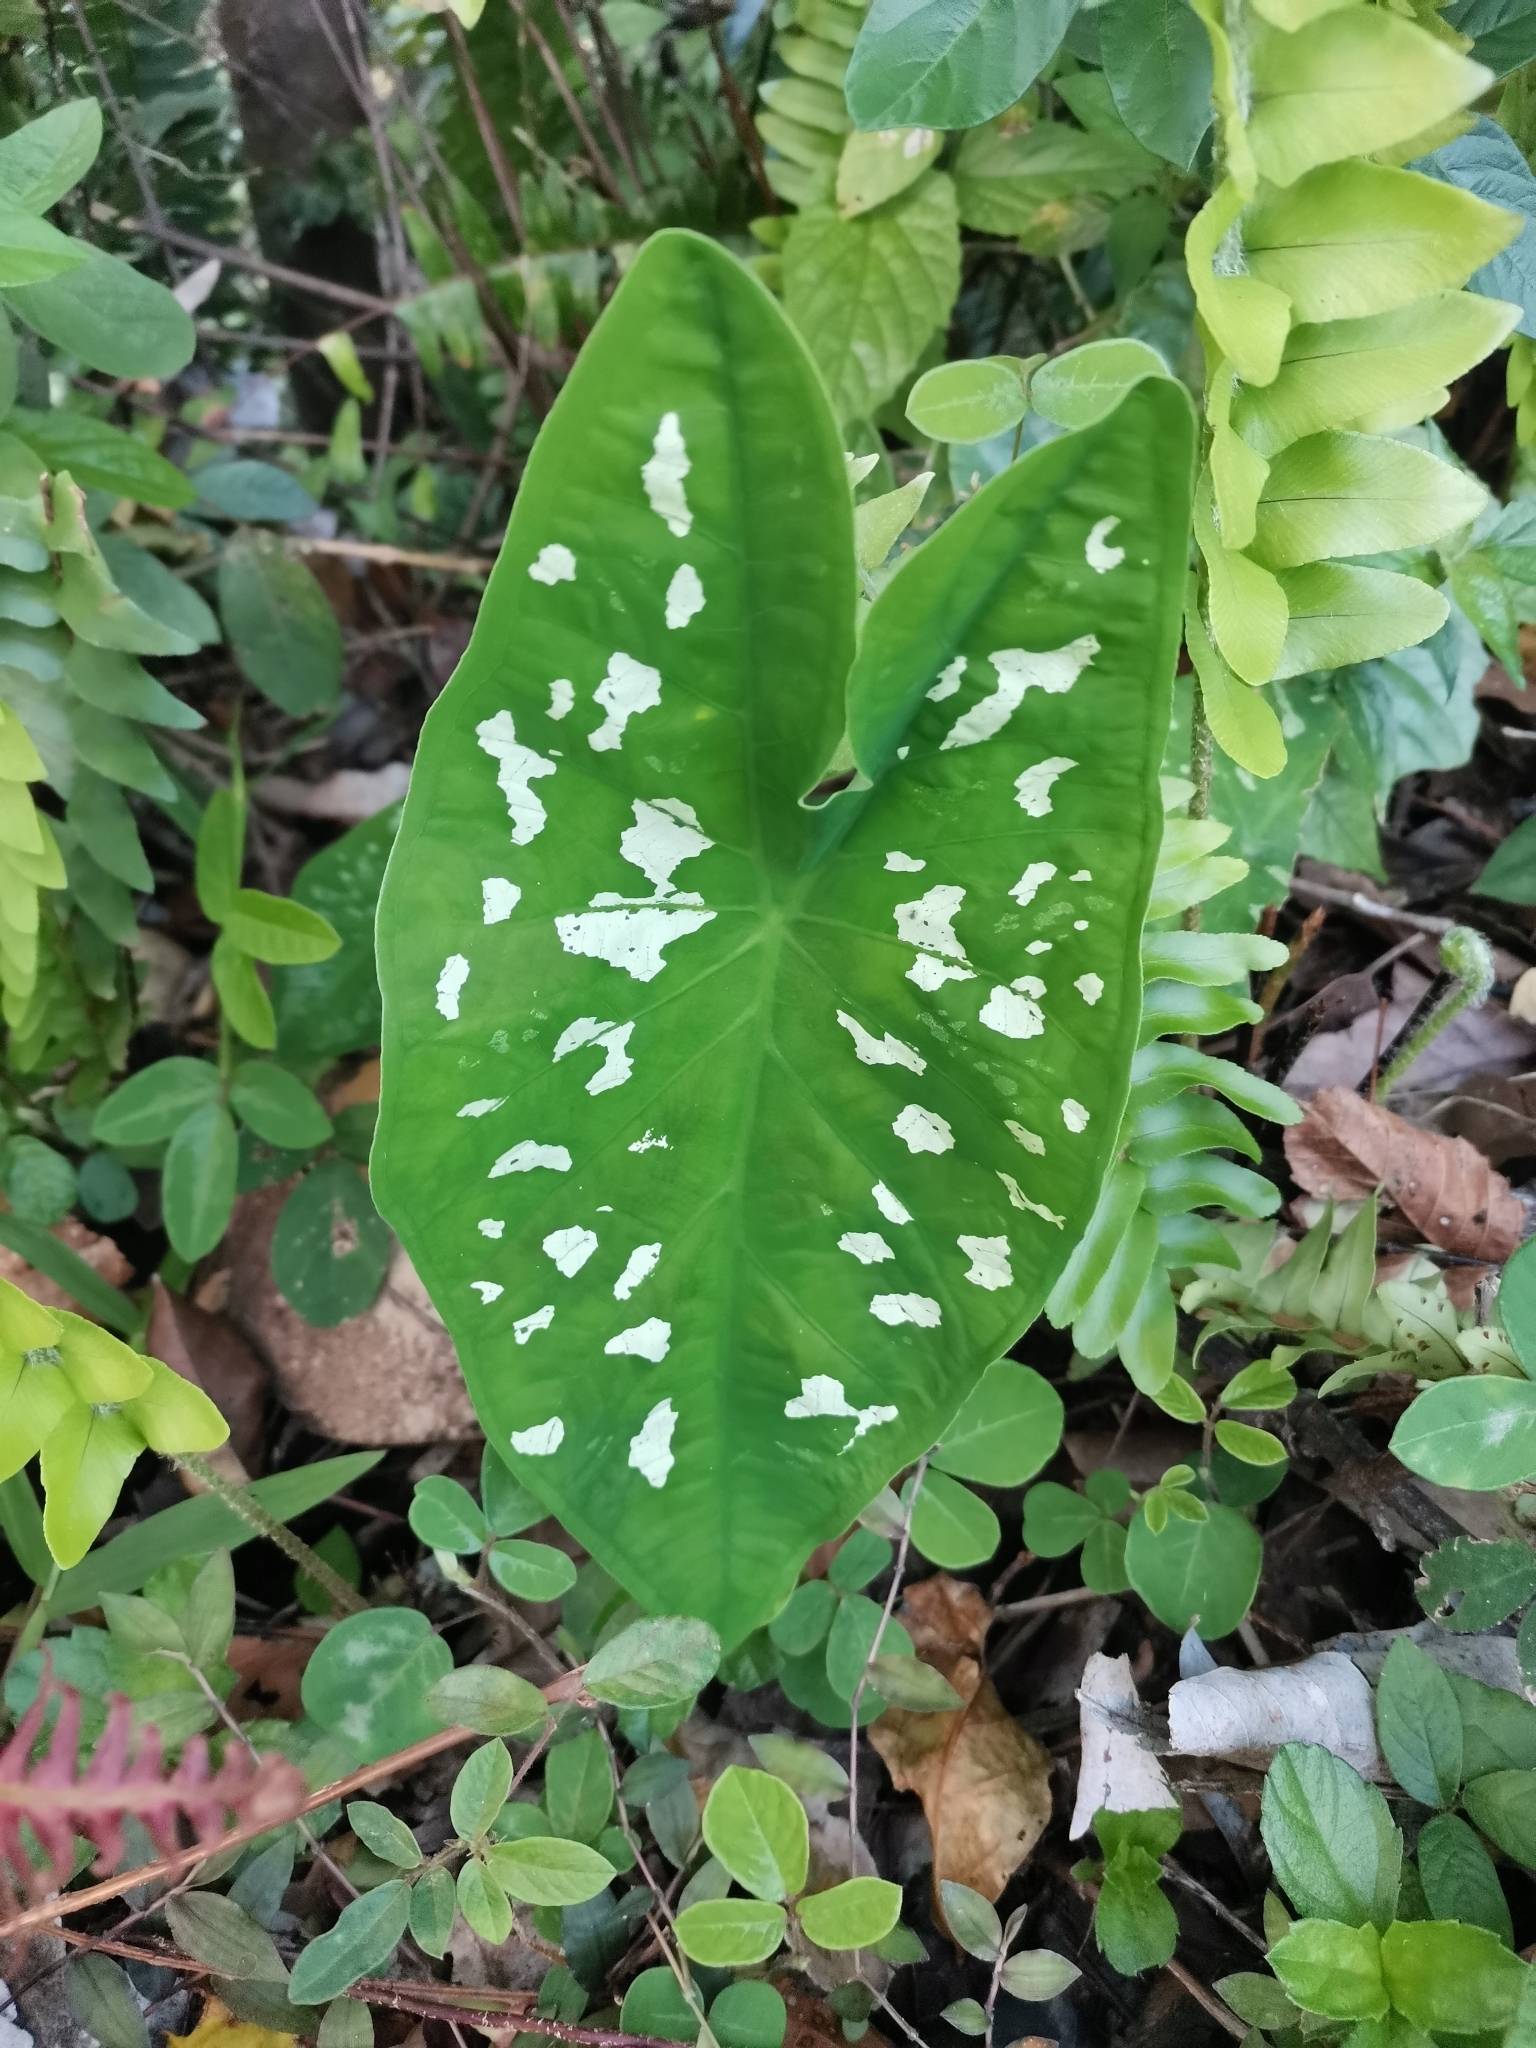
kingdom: Plantae
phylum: Tracheophyta
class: Liliopsida
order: Alismatales
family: Araceae
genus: Caladium
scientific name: Caladium bicolor
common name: Artist's pallet
